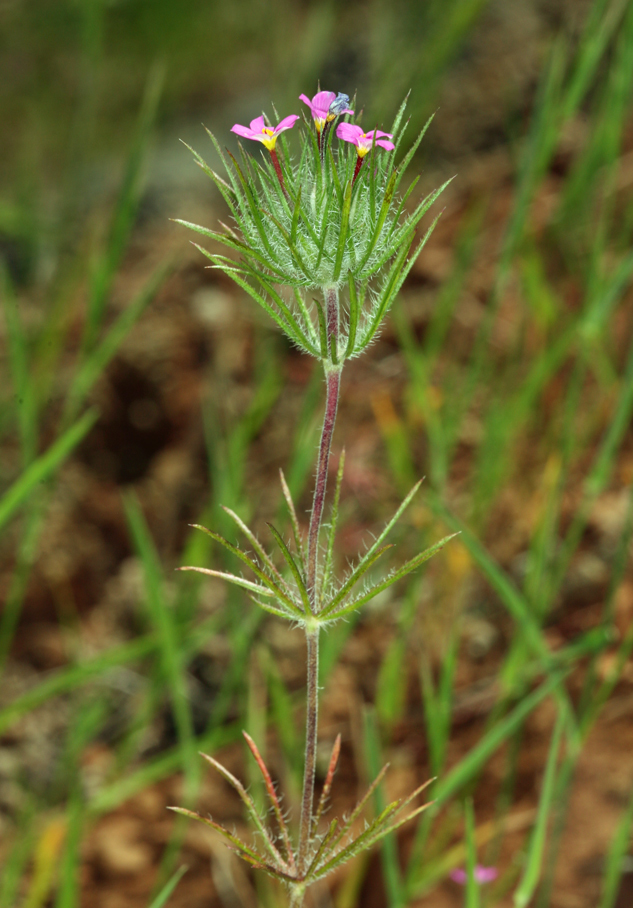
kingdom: Plantae
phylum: Tracheophyta
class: Magnoliopsida
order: Ericales
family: Polemoniaceae
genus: Leptosiphon
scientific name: Leptosiphon ciliatus
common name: Whiskerbrush
